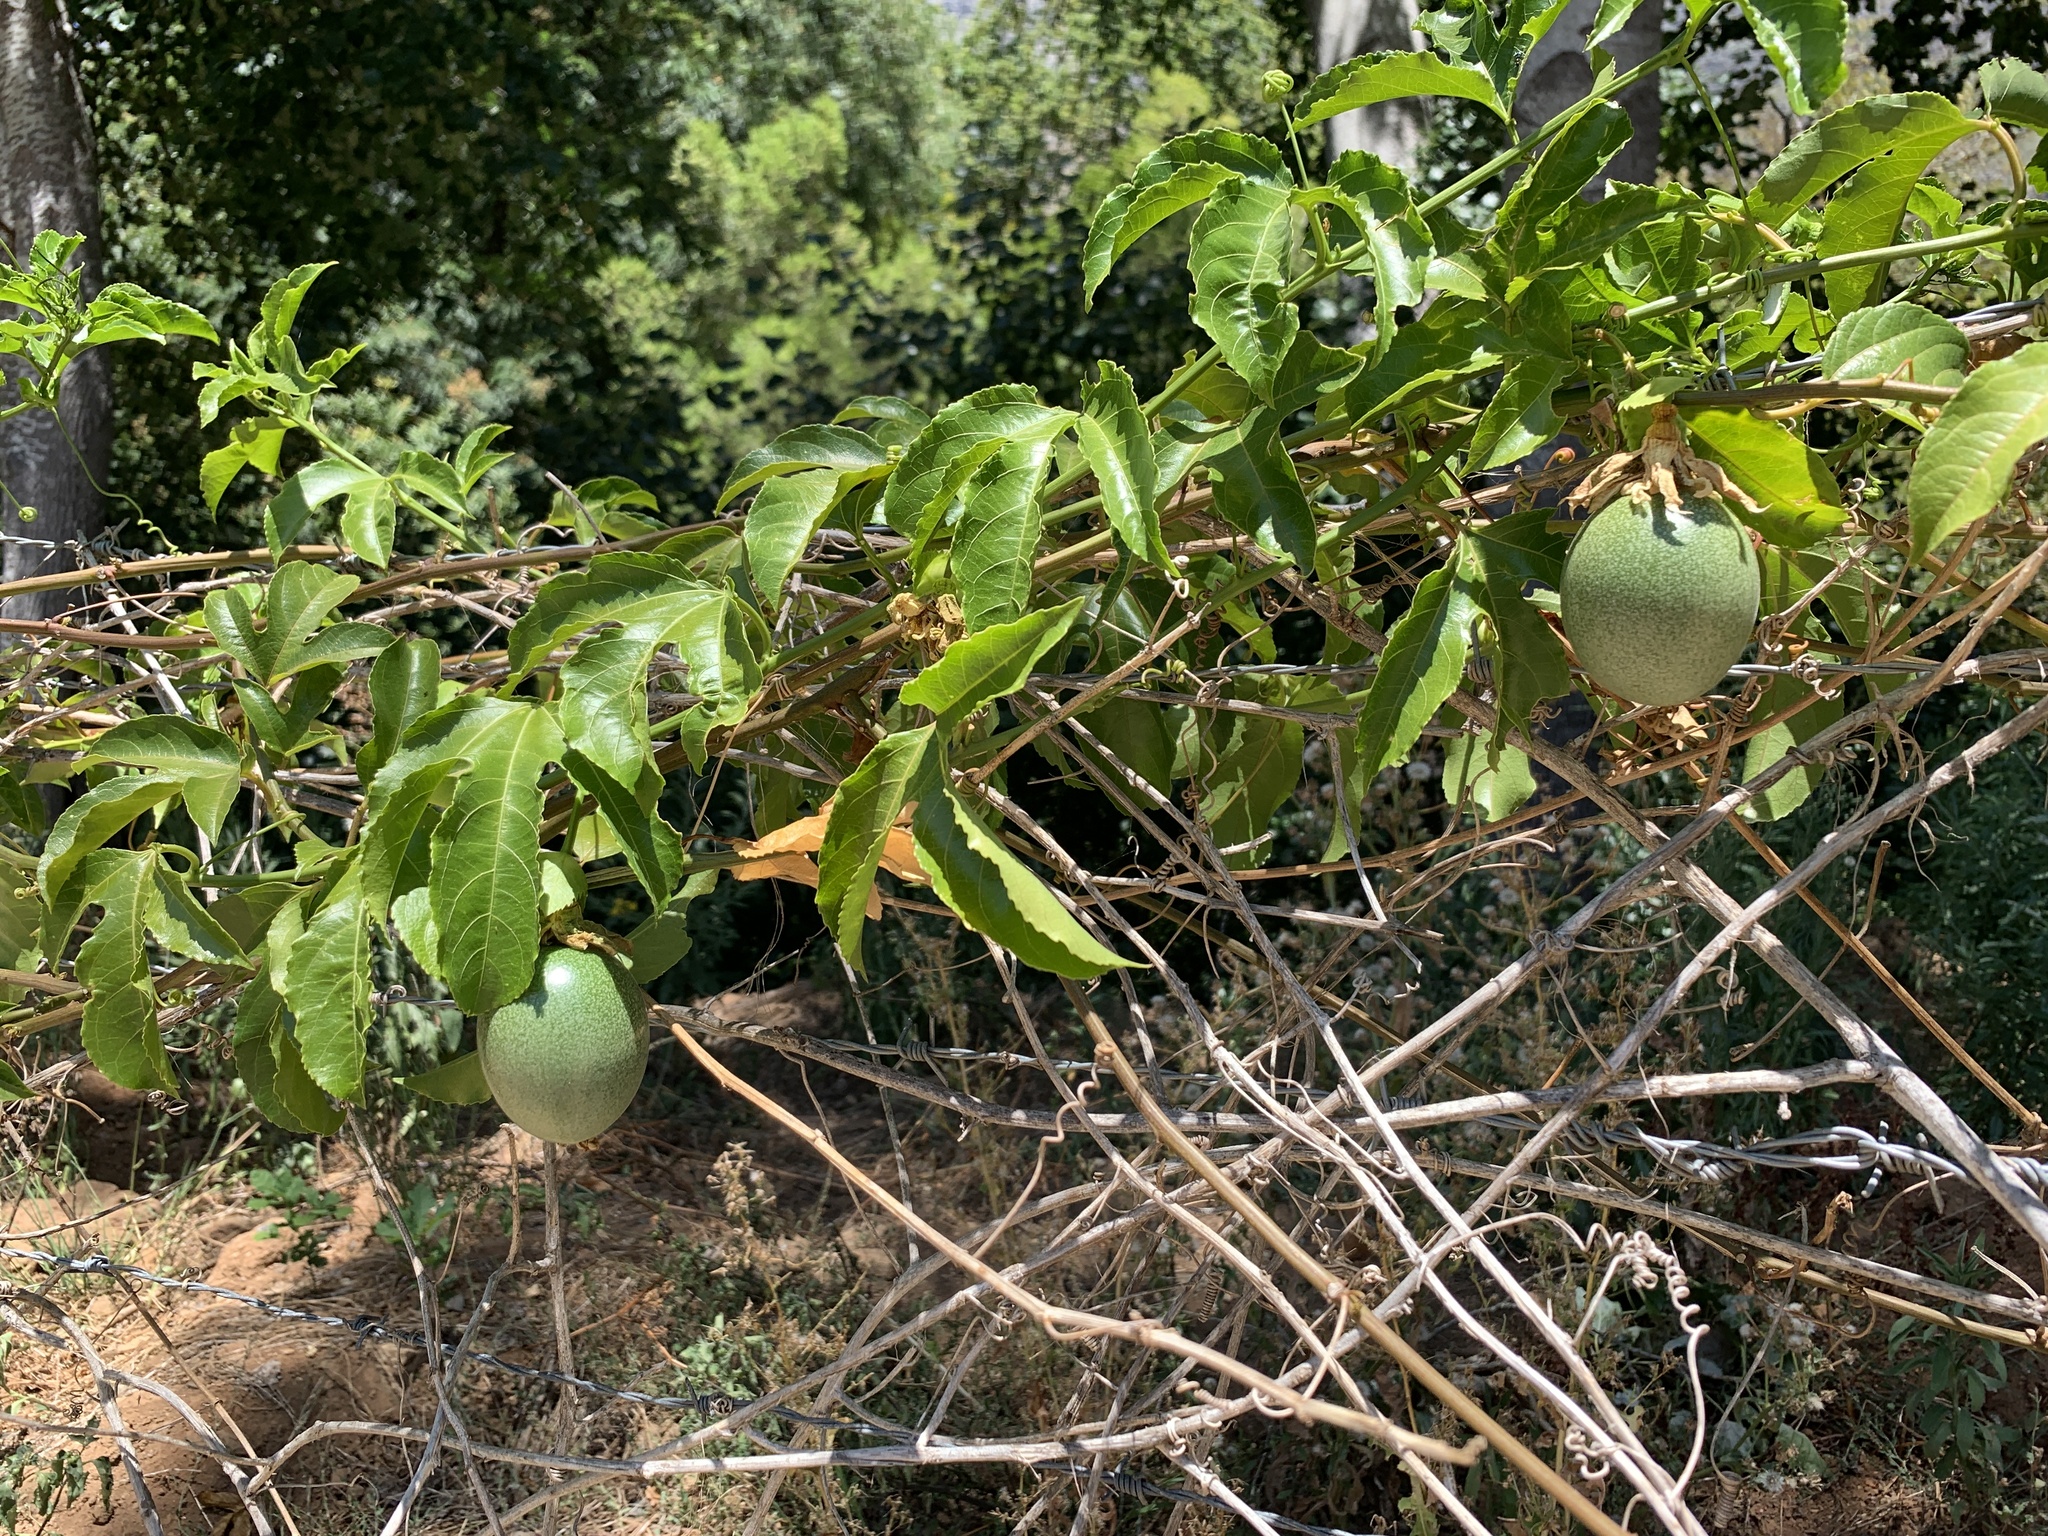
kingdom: Plantae
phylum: Tracheophyta
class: Magnoliopsida
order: Malpighiales
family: Passifloraceae
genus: Passiflora
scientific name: Passiflora edulis
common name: Purple granadilla
